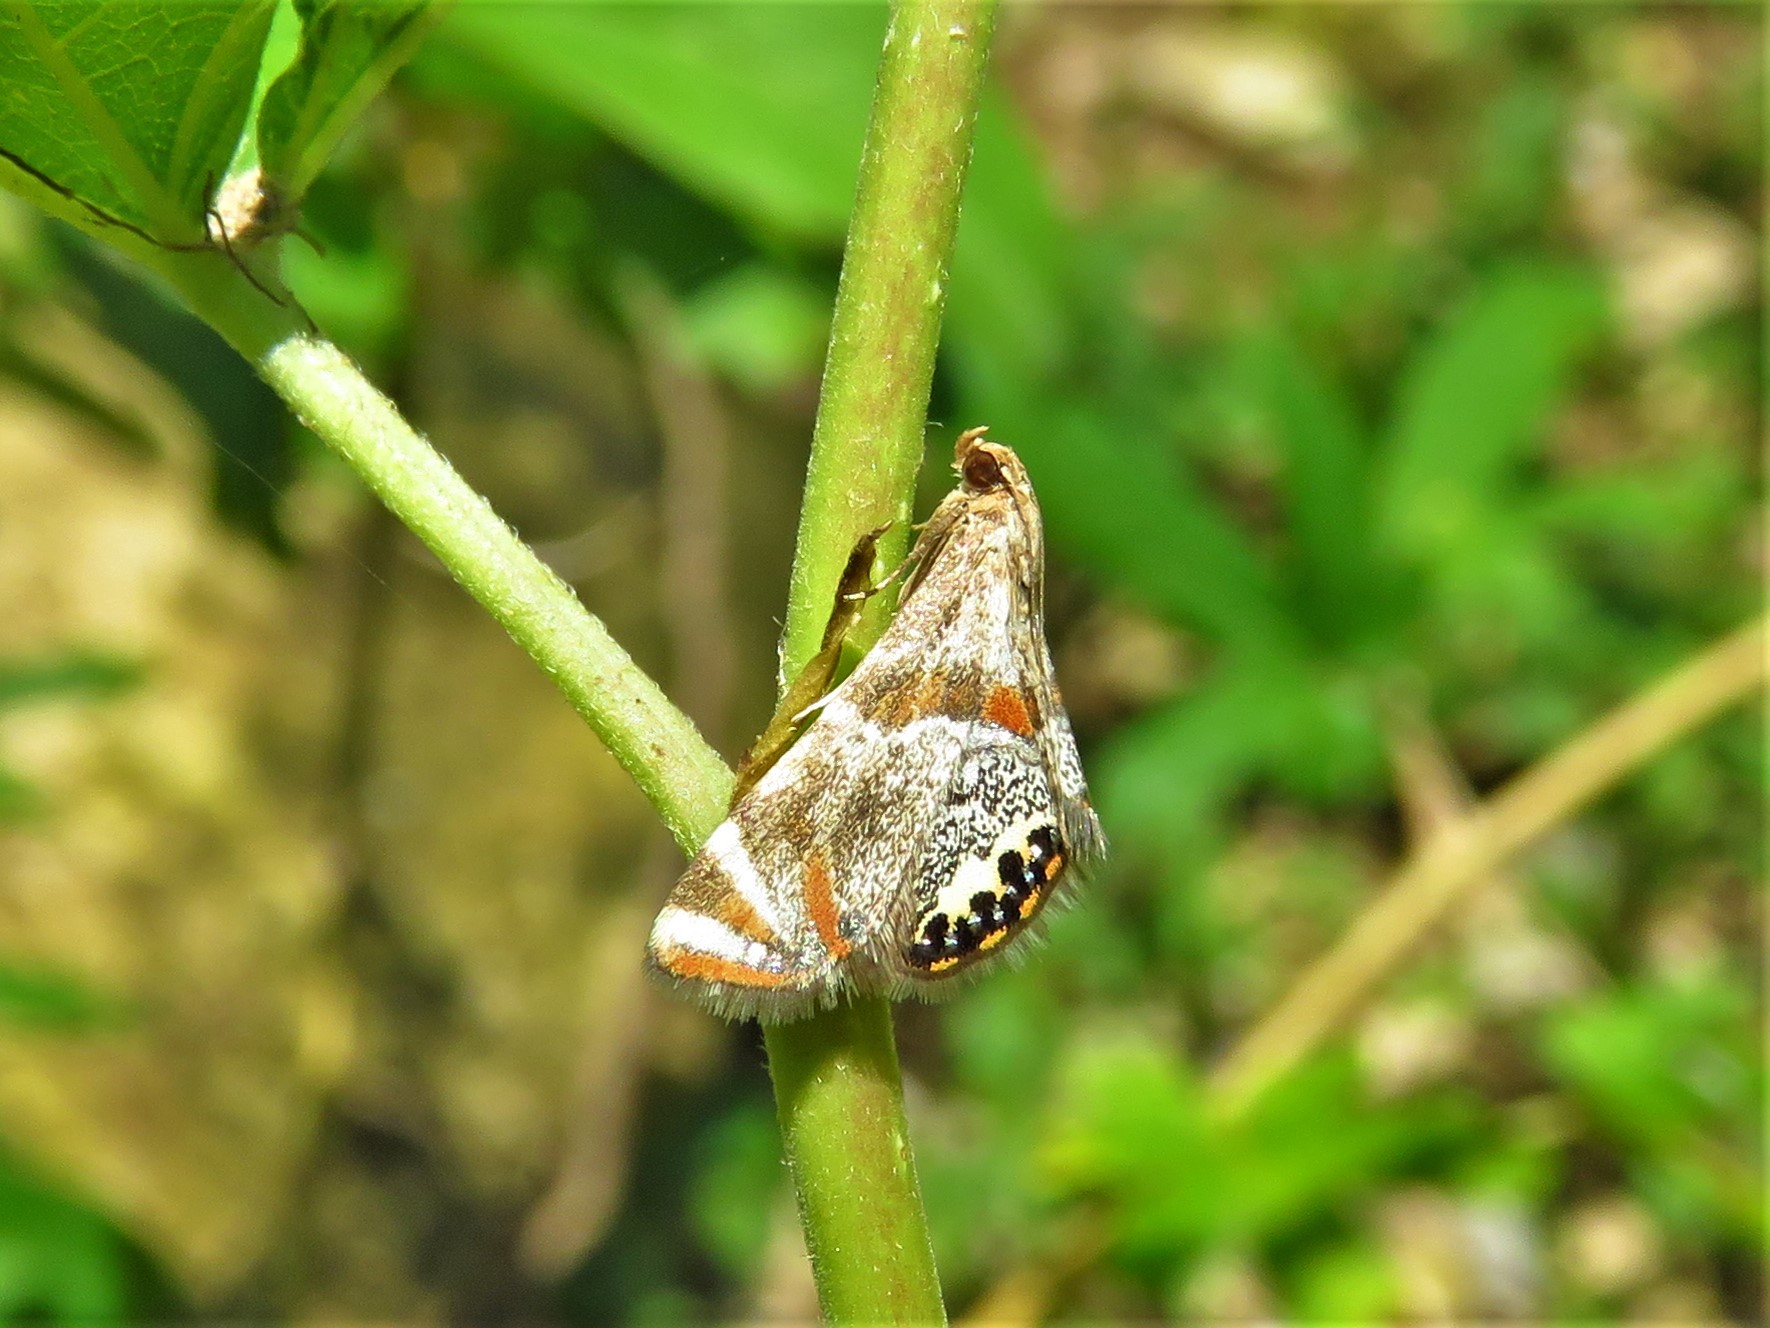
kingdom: Animalia
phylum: Arthropoda
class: Insecta
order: Lepidoptera
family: Crambidae
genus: Petrophila
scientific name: Petrophila jaliscalis
